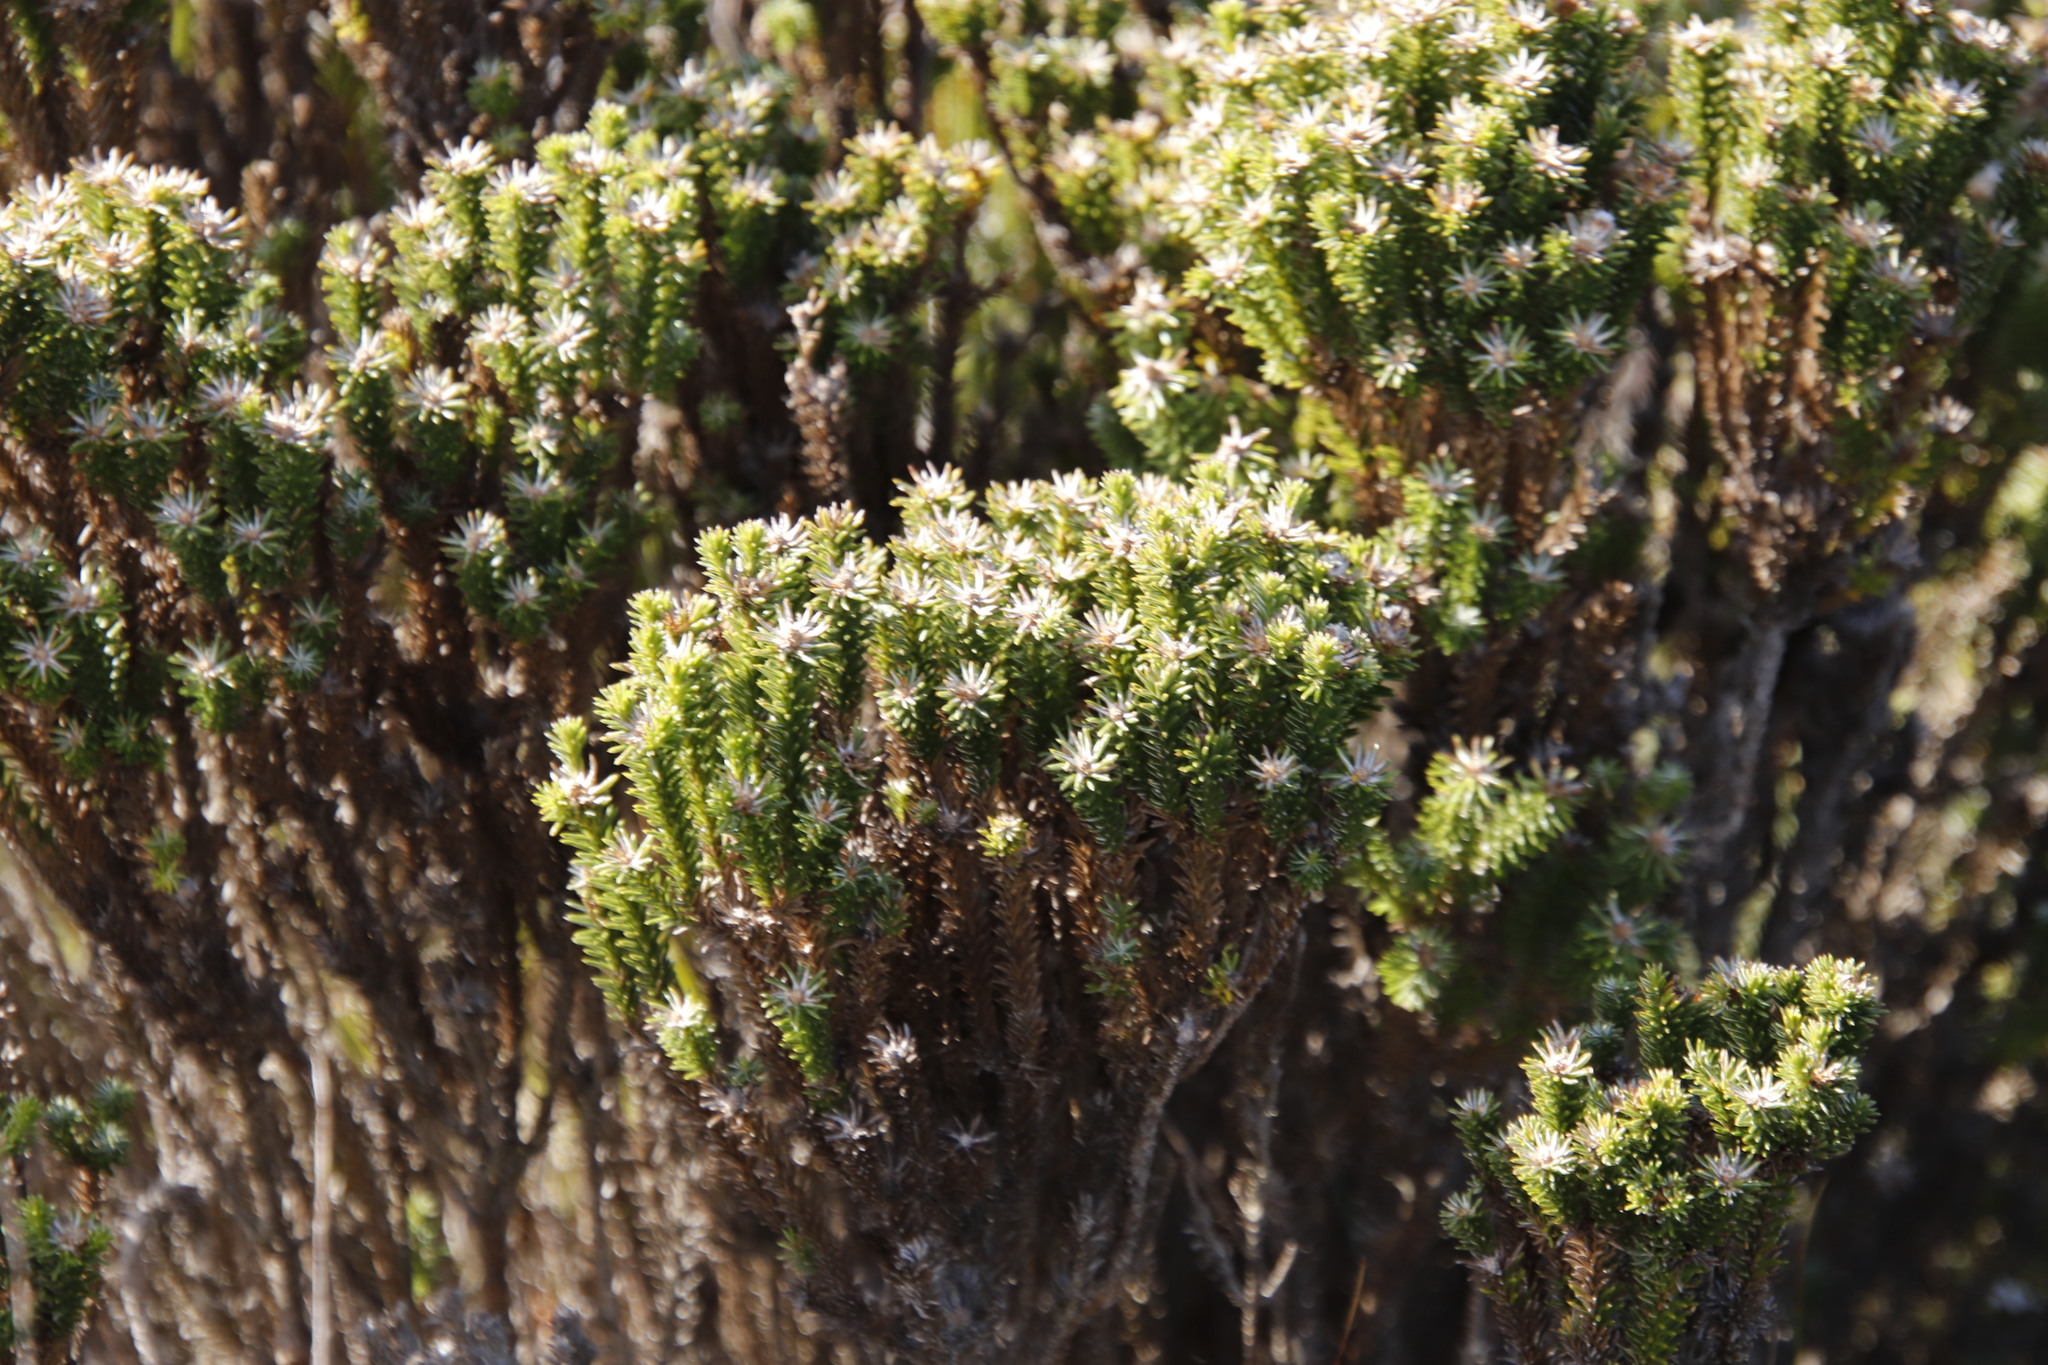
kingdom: Plantae
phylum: Tracheophyta
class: Magnoliopsida
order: Asterales
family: Asteraceae
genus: Stoebe
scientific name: Stoebe rosea
